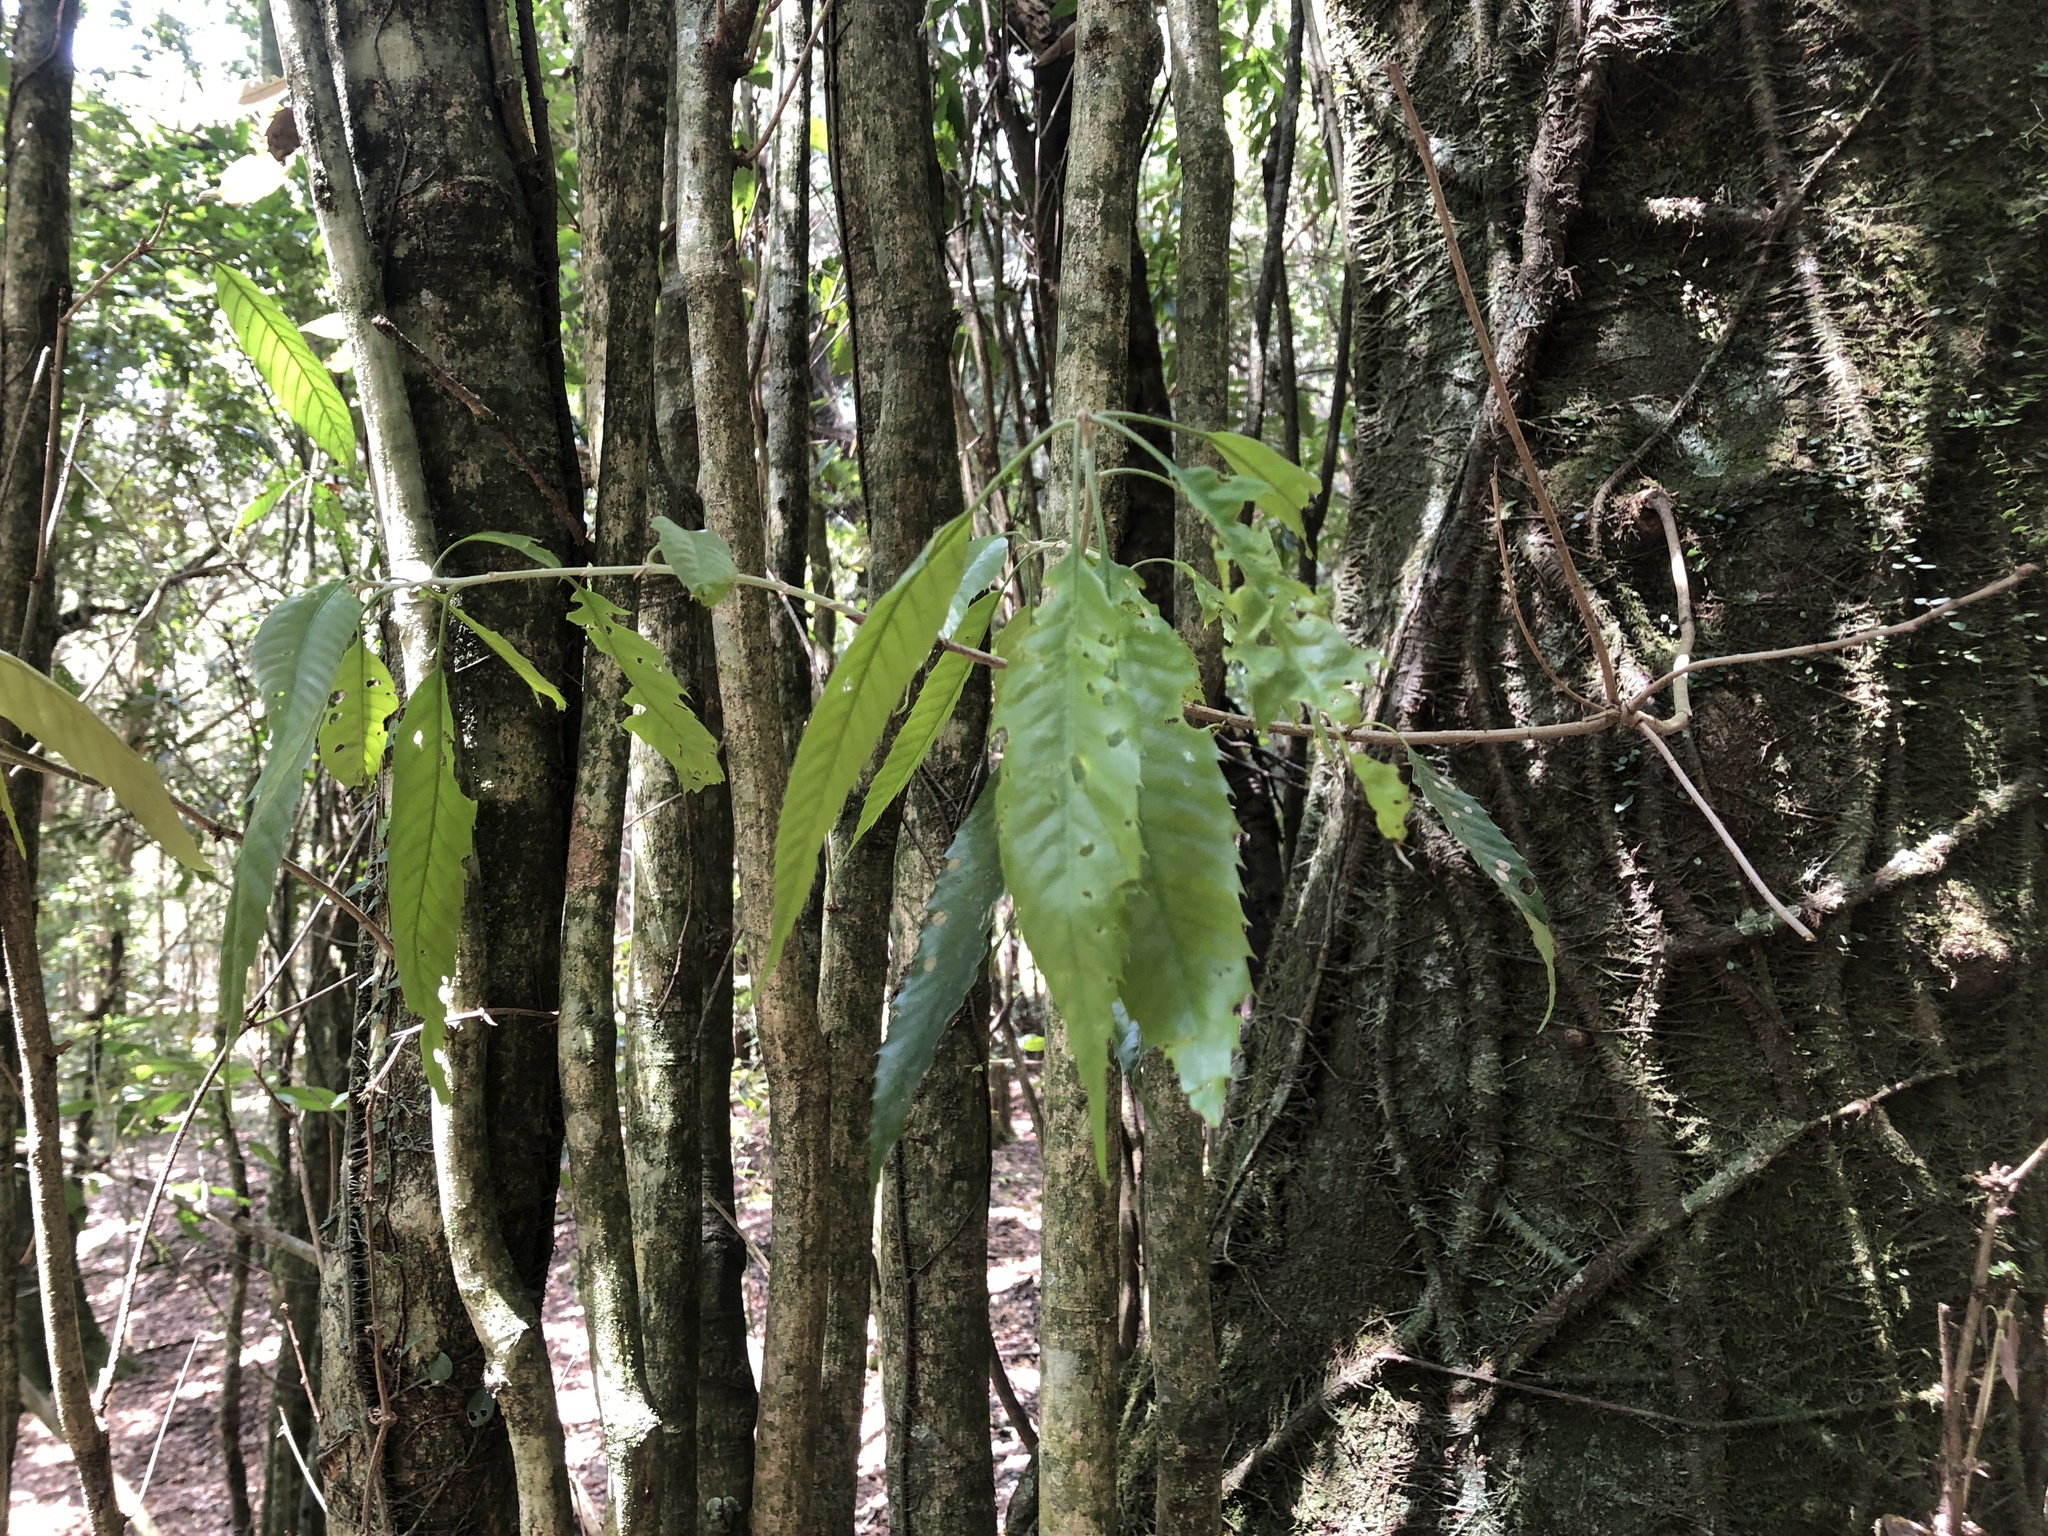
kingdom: Plantae
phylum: Tracheophyta
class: Magnoliopsida
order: Fagales
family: Fagaceae
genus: Quercus
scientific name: Quercus stenophylloides
